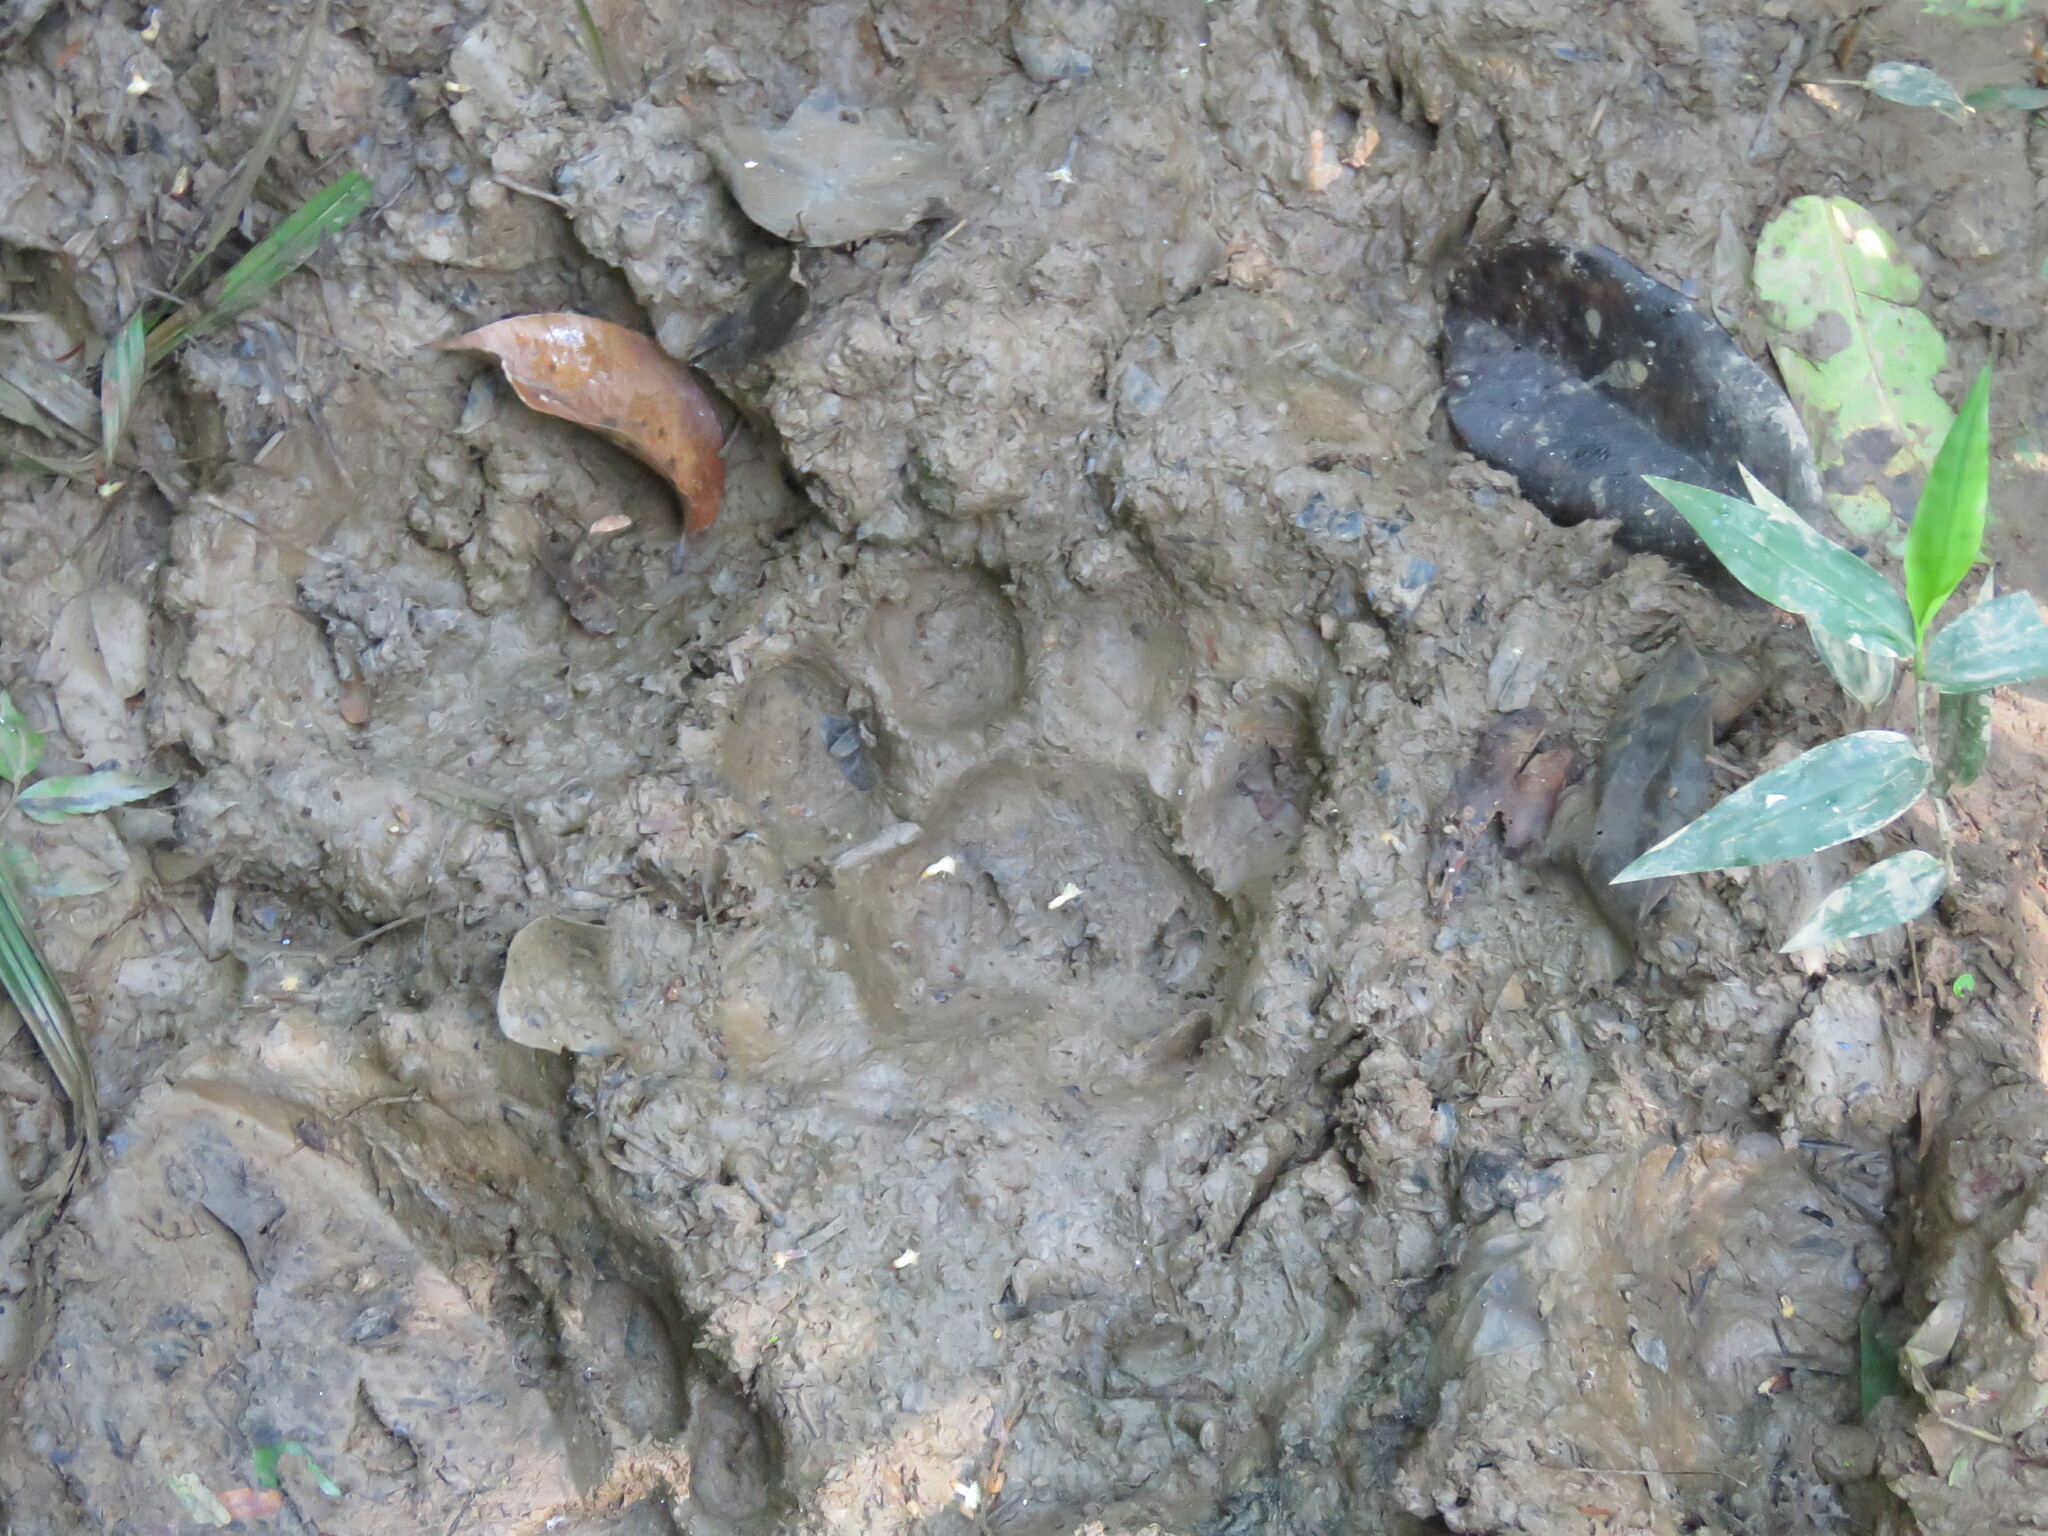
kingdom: Animalia
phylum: Chordata
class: Mammalia
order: Carnivora
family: Felidae
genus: Panthera
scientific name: Panthera onca
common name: Jaguar
